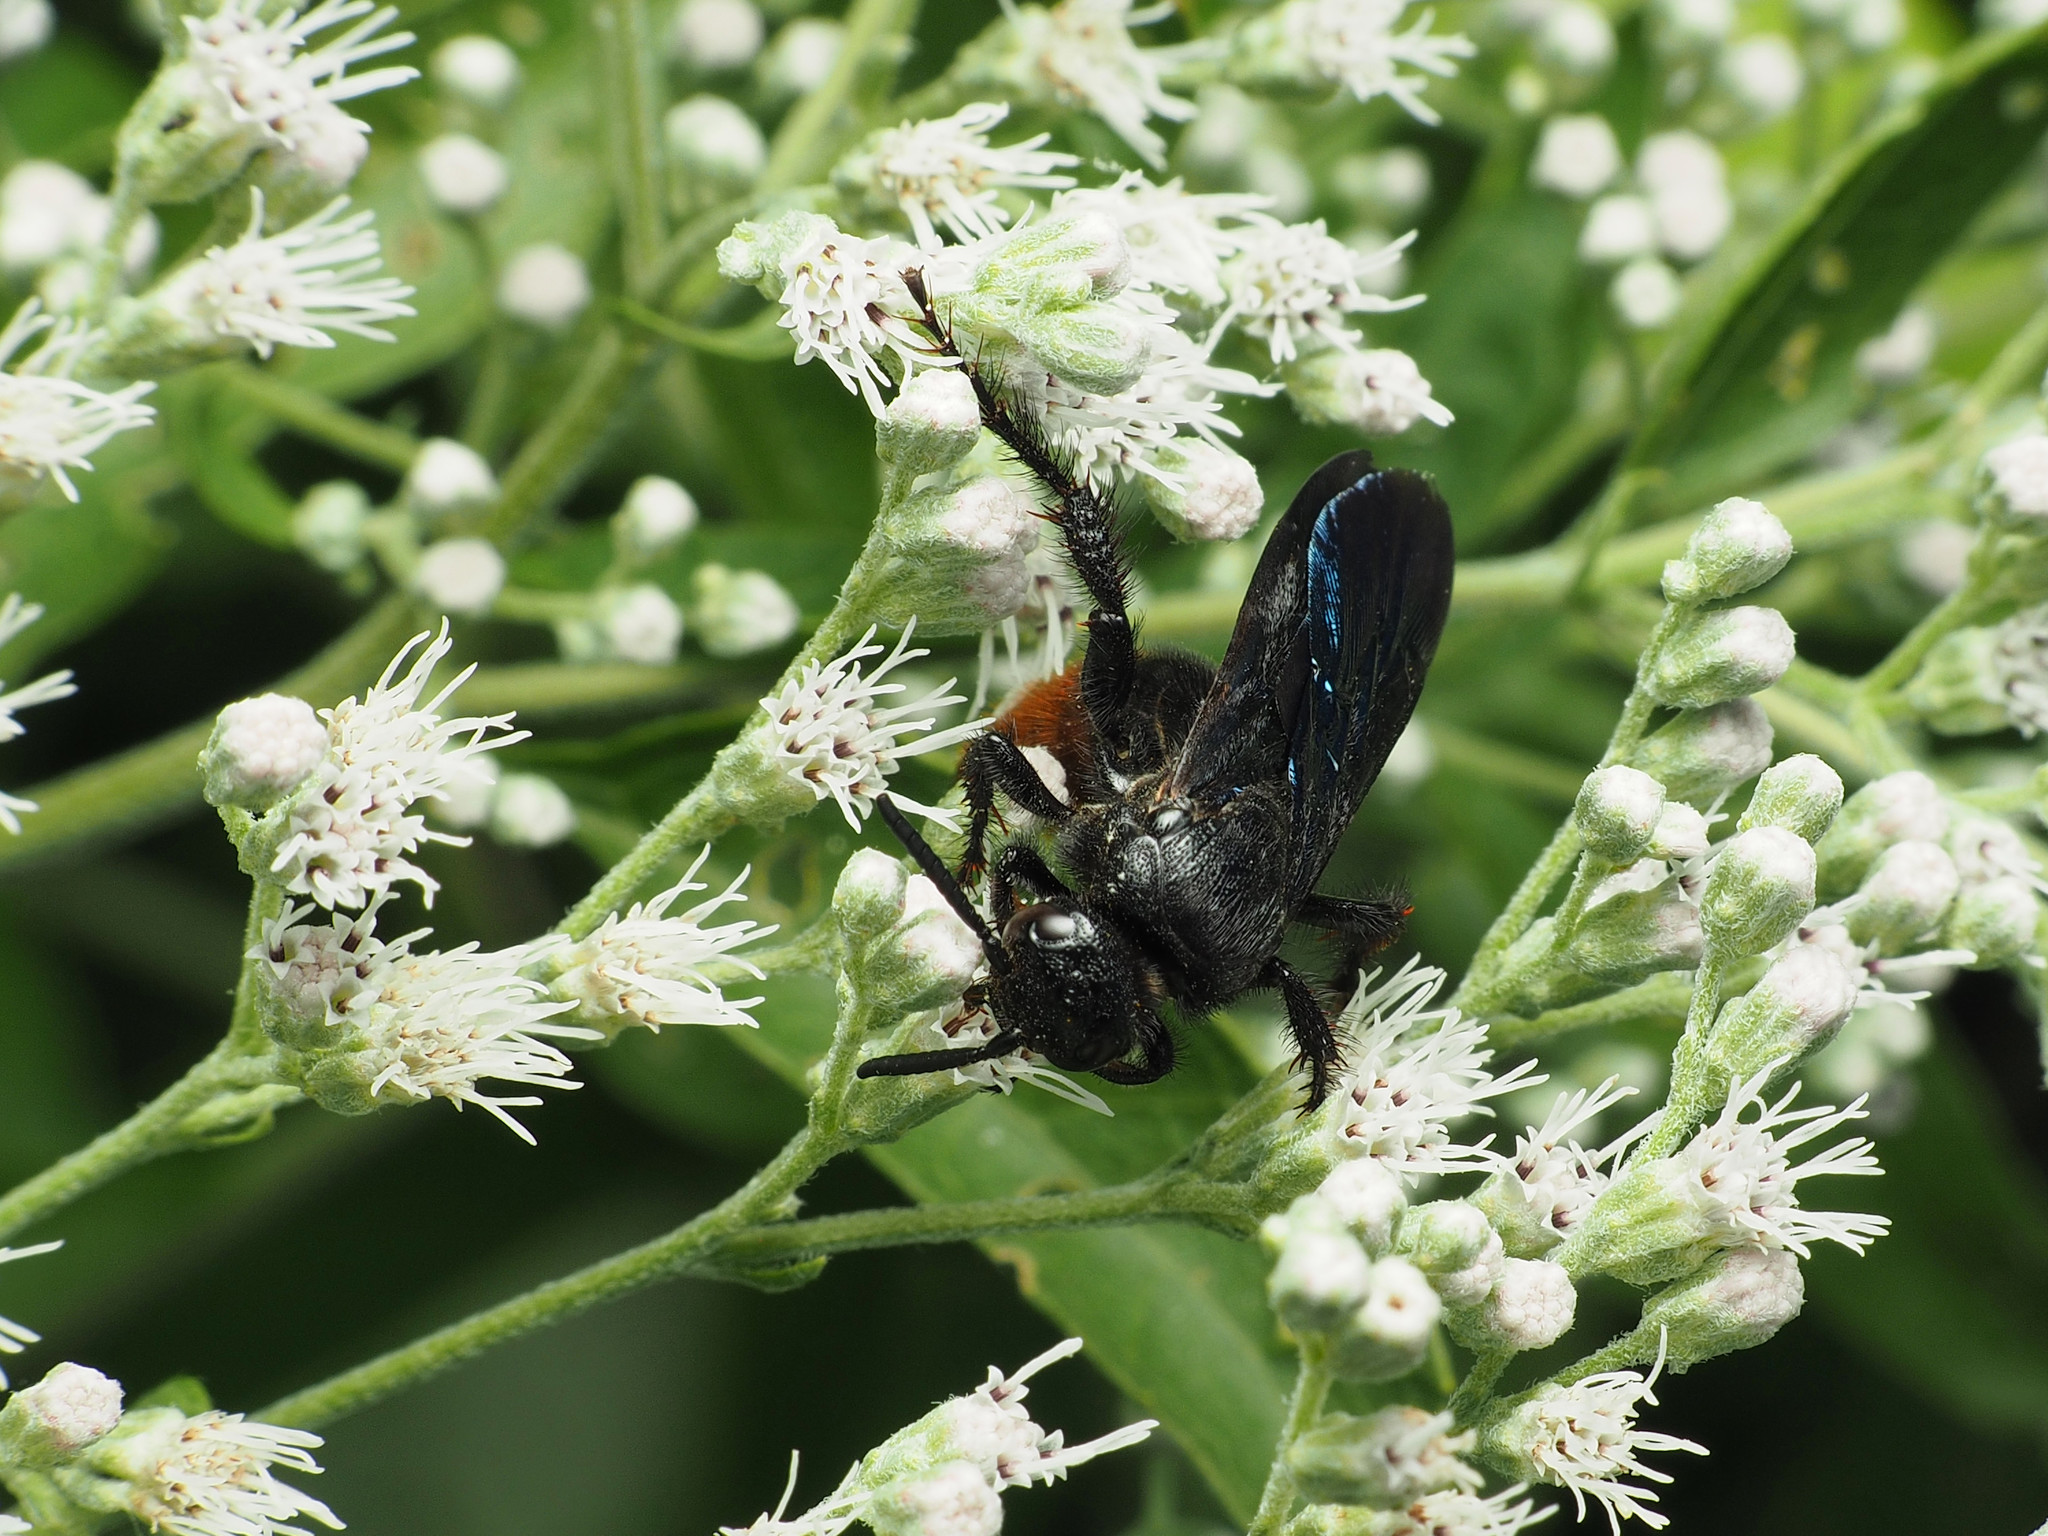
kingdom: Animalia
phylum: Arthropoda
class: Insecta
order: Hymenoptera
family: Scoliidae
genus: Scolia
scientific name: Scolia dubia
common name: Blue-winged scoliid wasp
